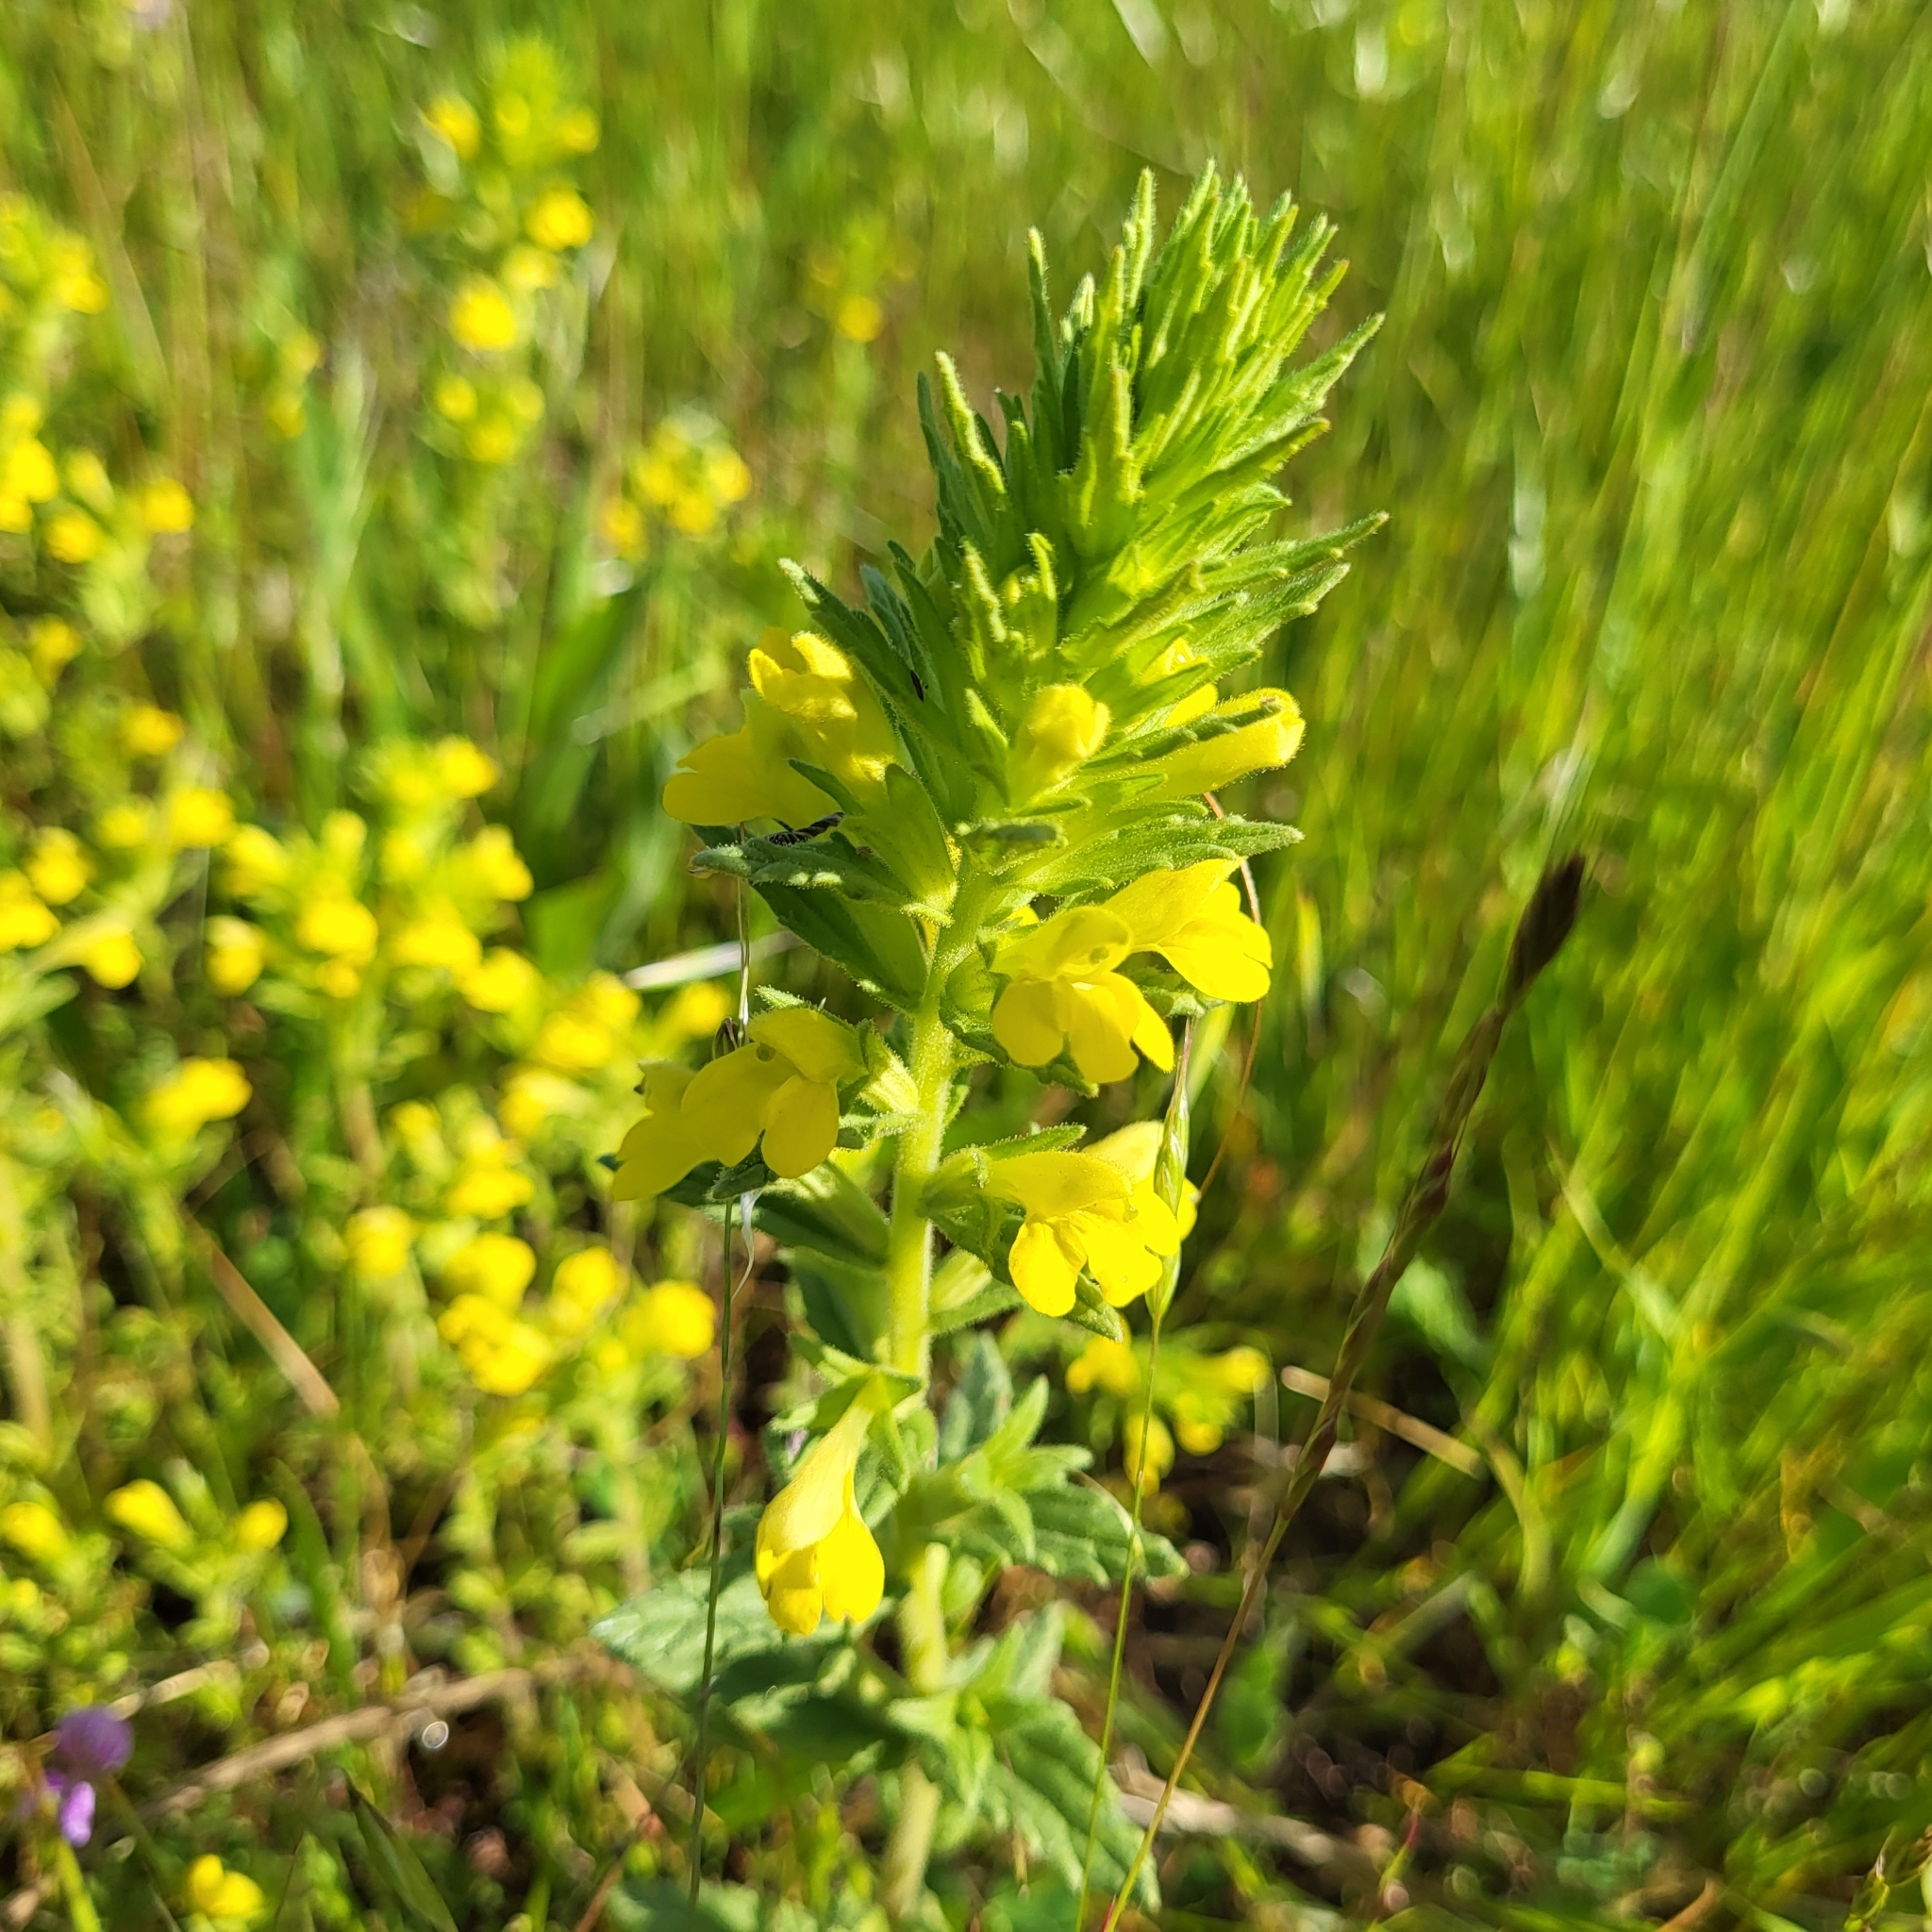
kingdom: Plantae
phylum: Tracheophyta
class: Magnoliopsida
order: Lamiales
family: Orobanchaceae
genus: Bellardia
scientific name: Bellardia viscosa
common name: Sticky parentucellia
